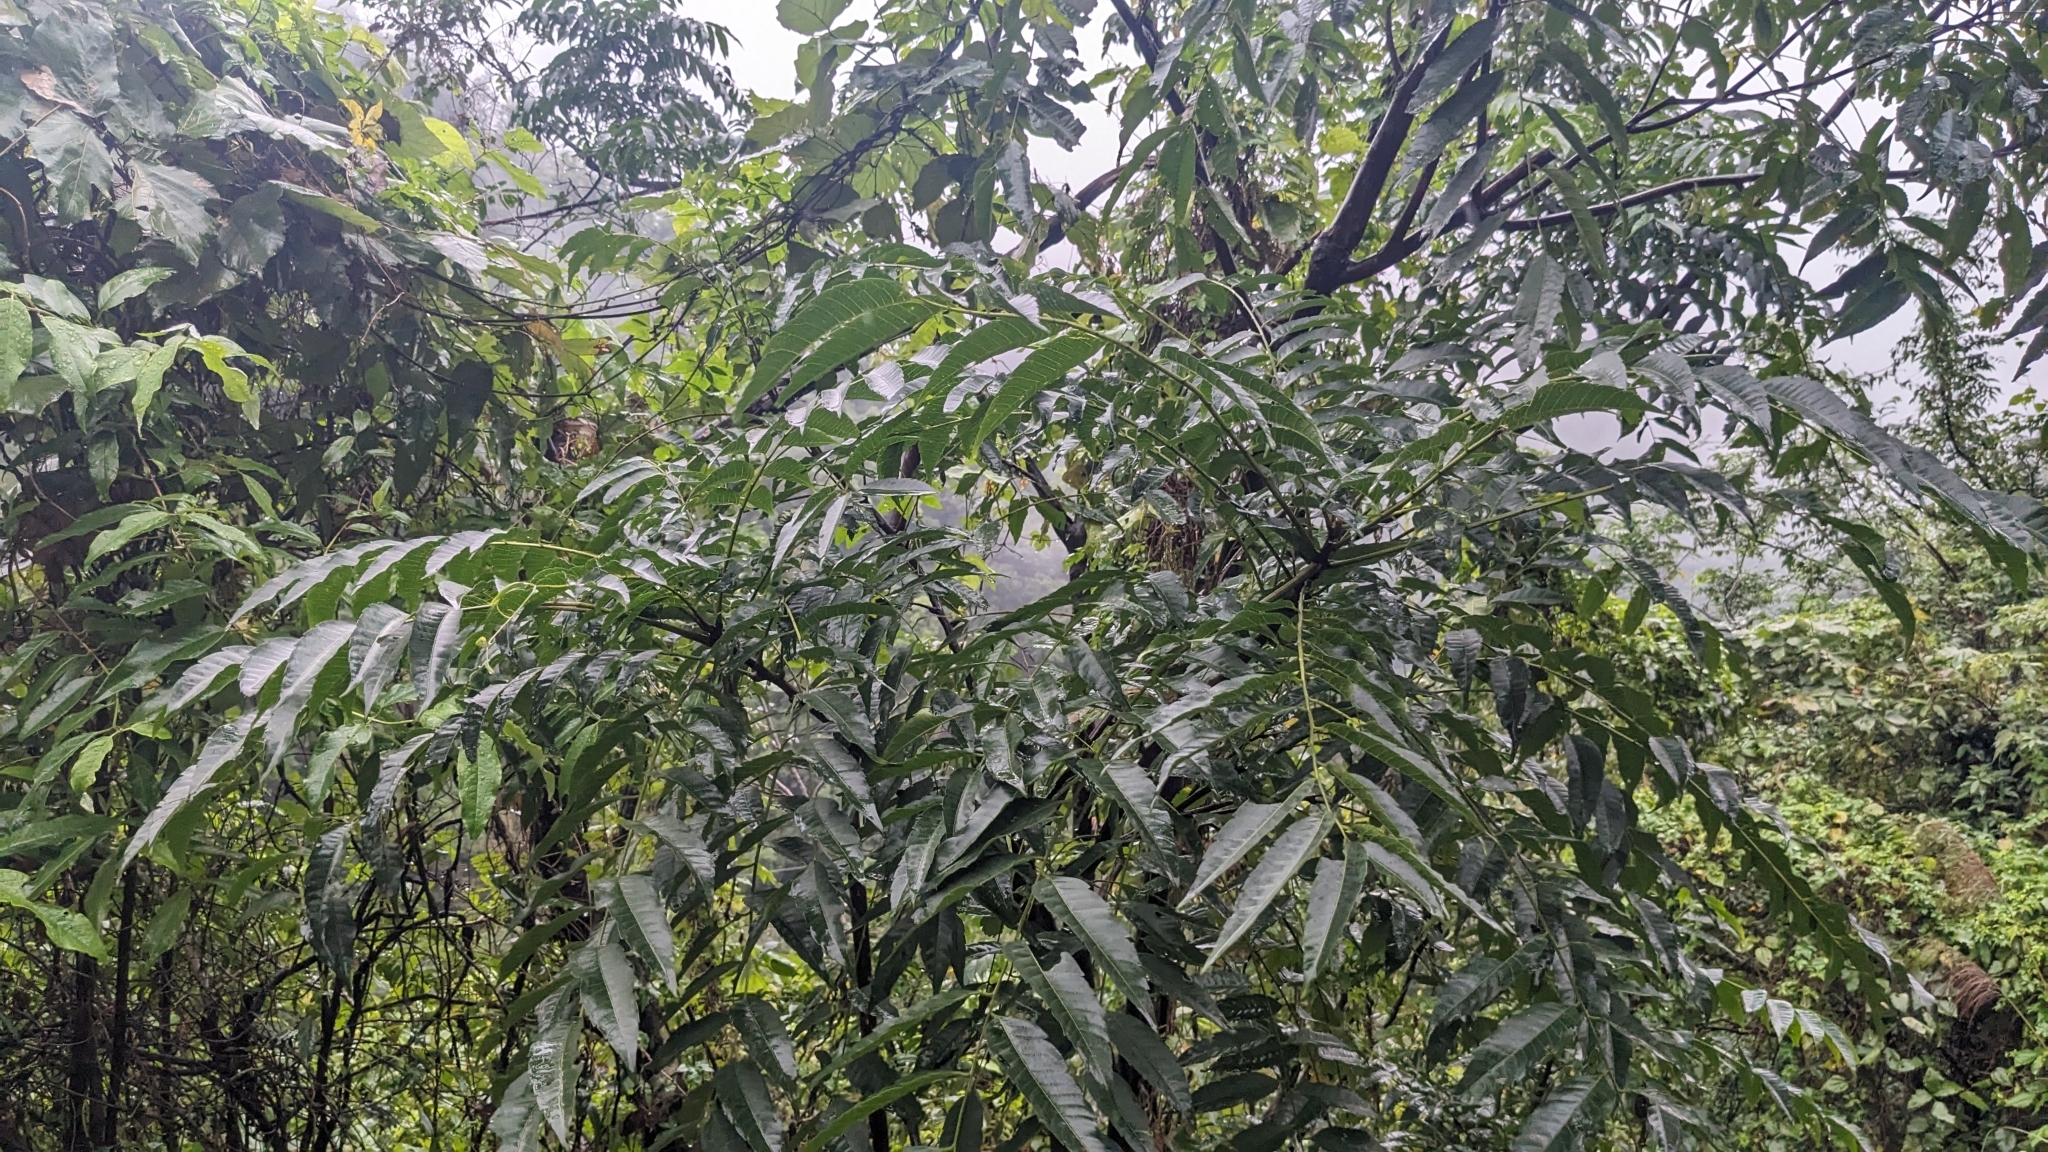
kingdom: Plantae
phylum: Tracheophyta
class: Magnoliopsida
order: Sapindales
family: Sapindaceae
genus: Eurycorymbus
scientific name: Eurycorymbus cavaleriei
